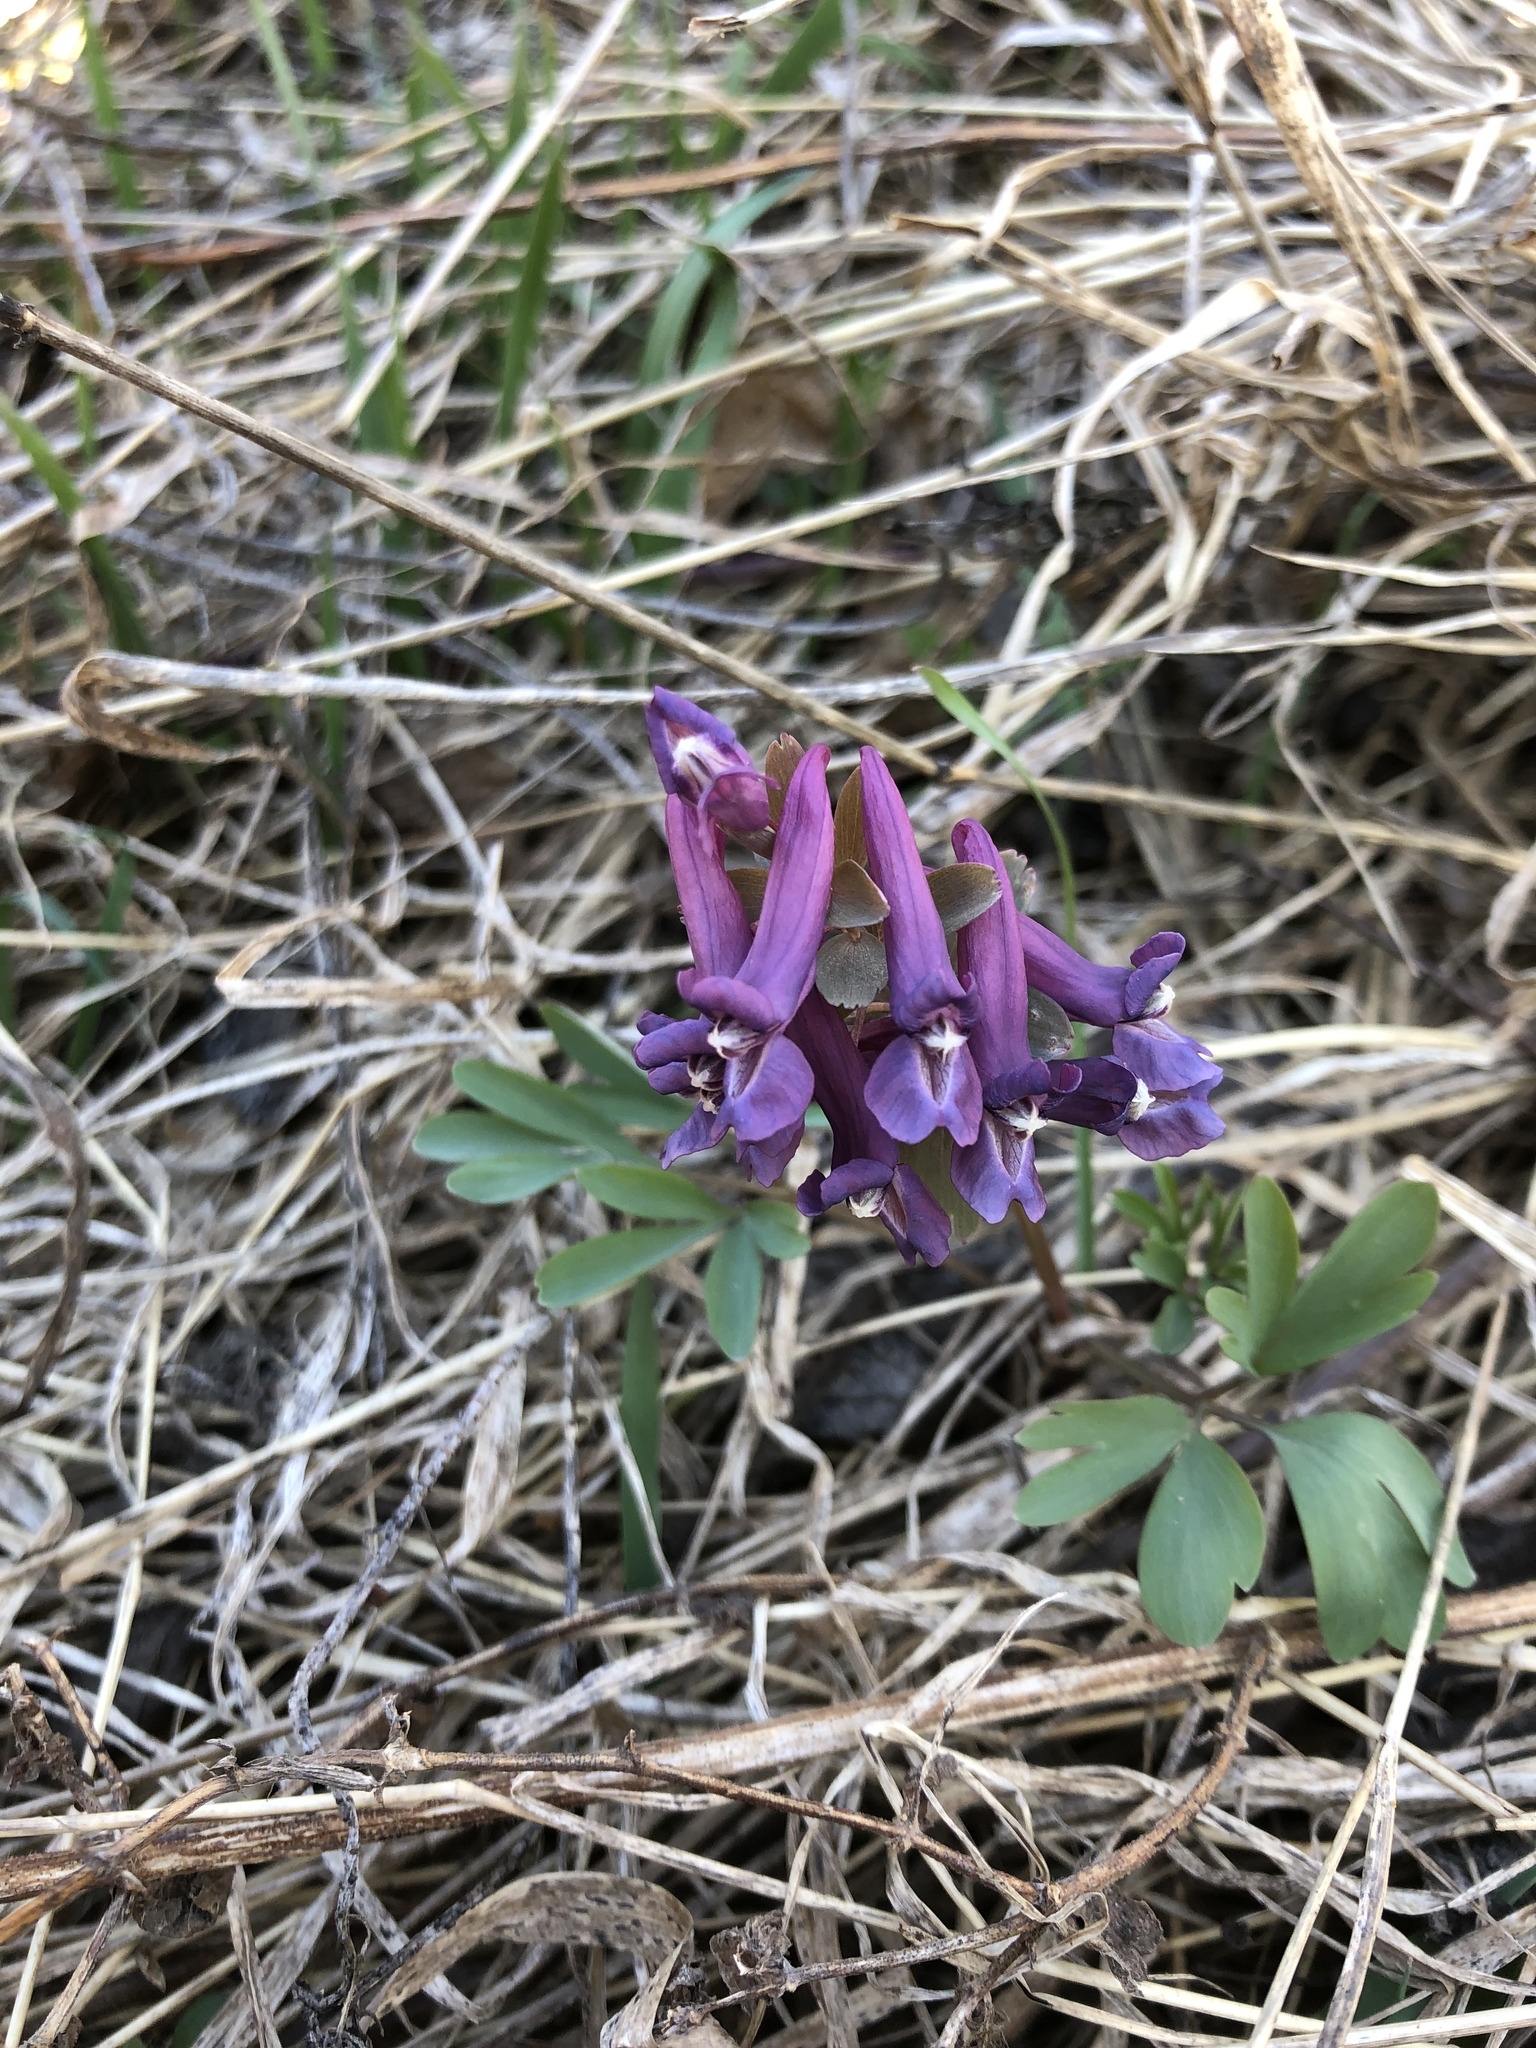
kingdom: Plantae
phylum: Tracheophyta
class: Magnoliopsida
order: Ranunculales
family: Papaveraceae
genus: Corydalis
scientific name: Corydalis solida
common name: Bird-in-a-bush
